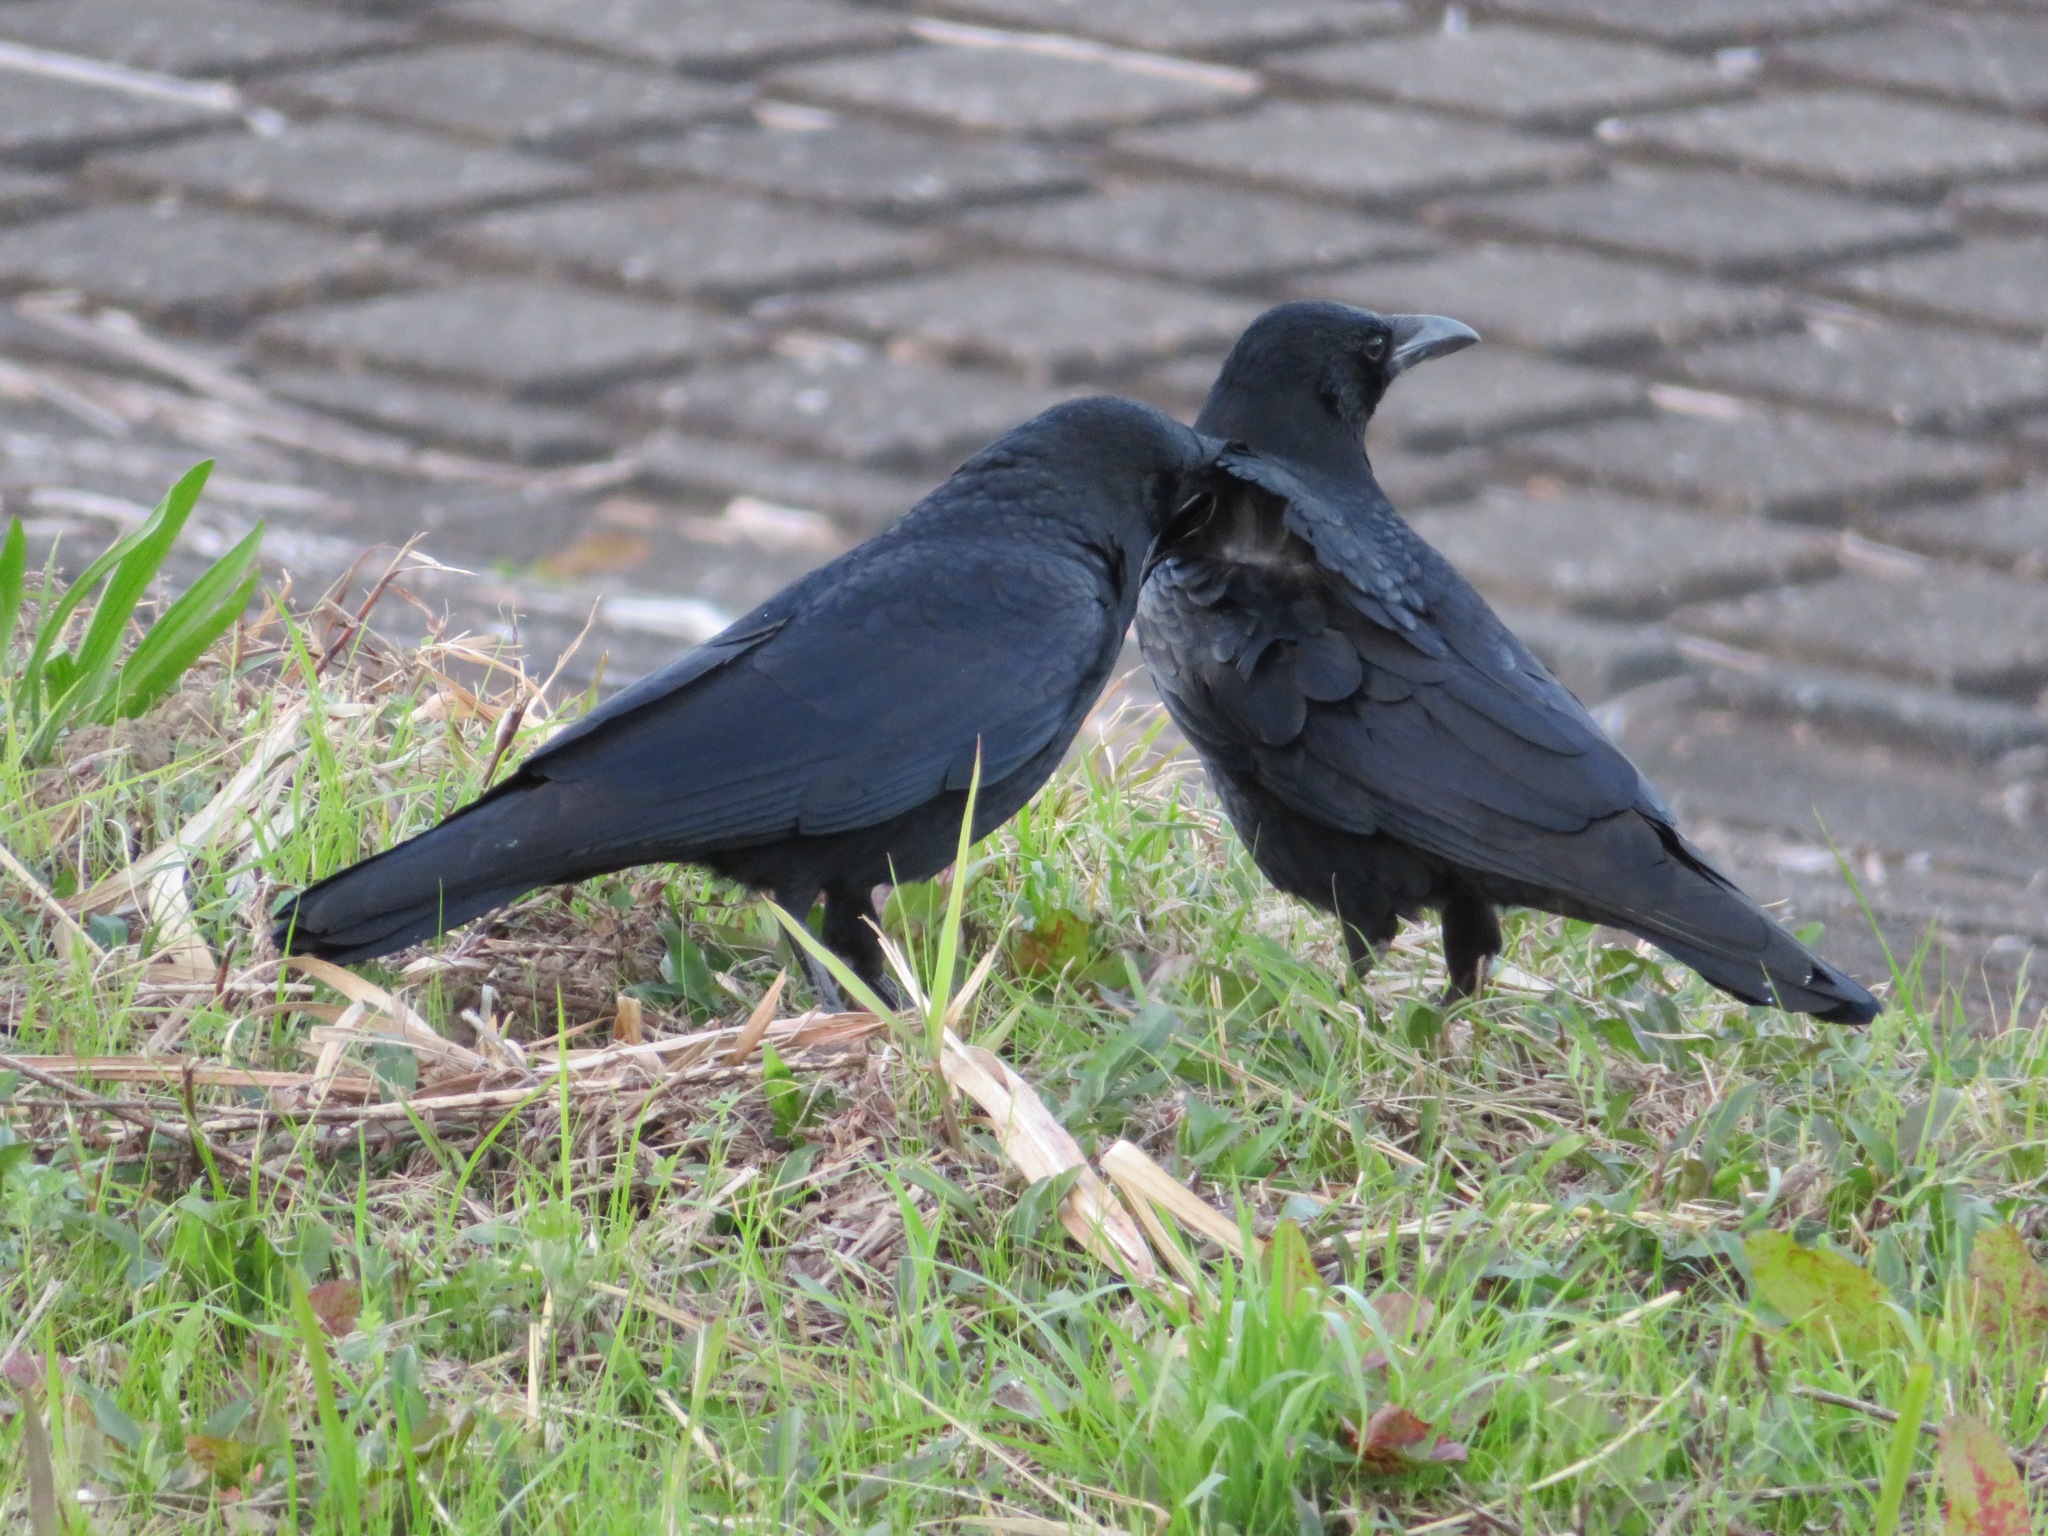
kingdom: Animalia
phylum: Chordata
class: Aves
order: Passeriformes
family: Corvidae
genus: Corvus
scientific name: Corvus corone
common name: Carrion crow
